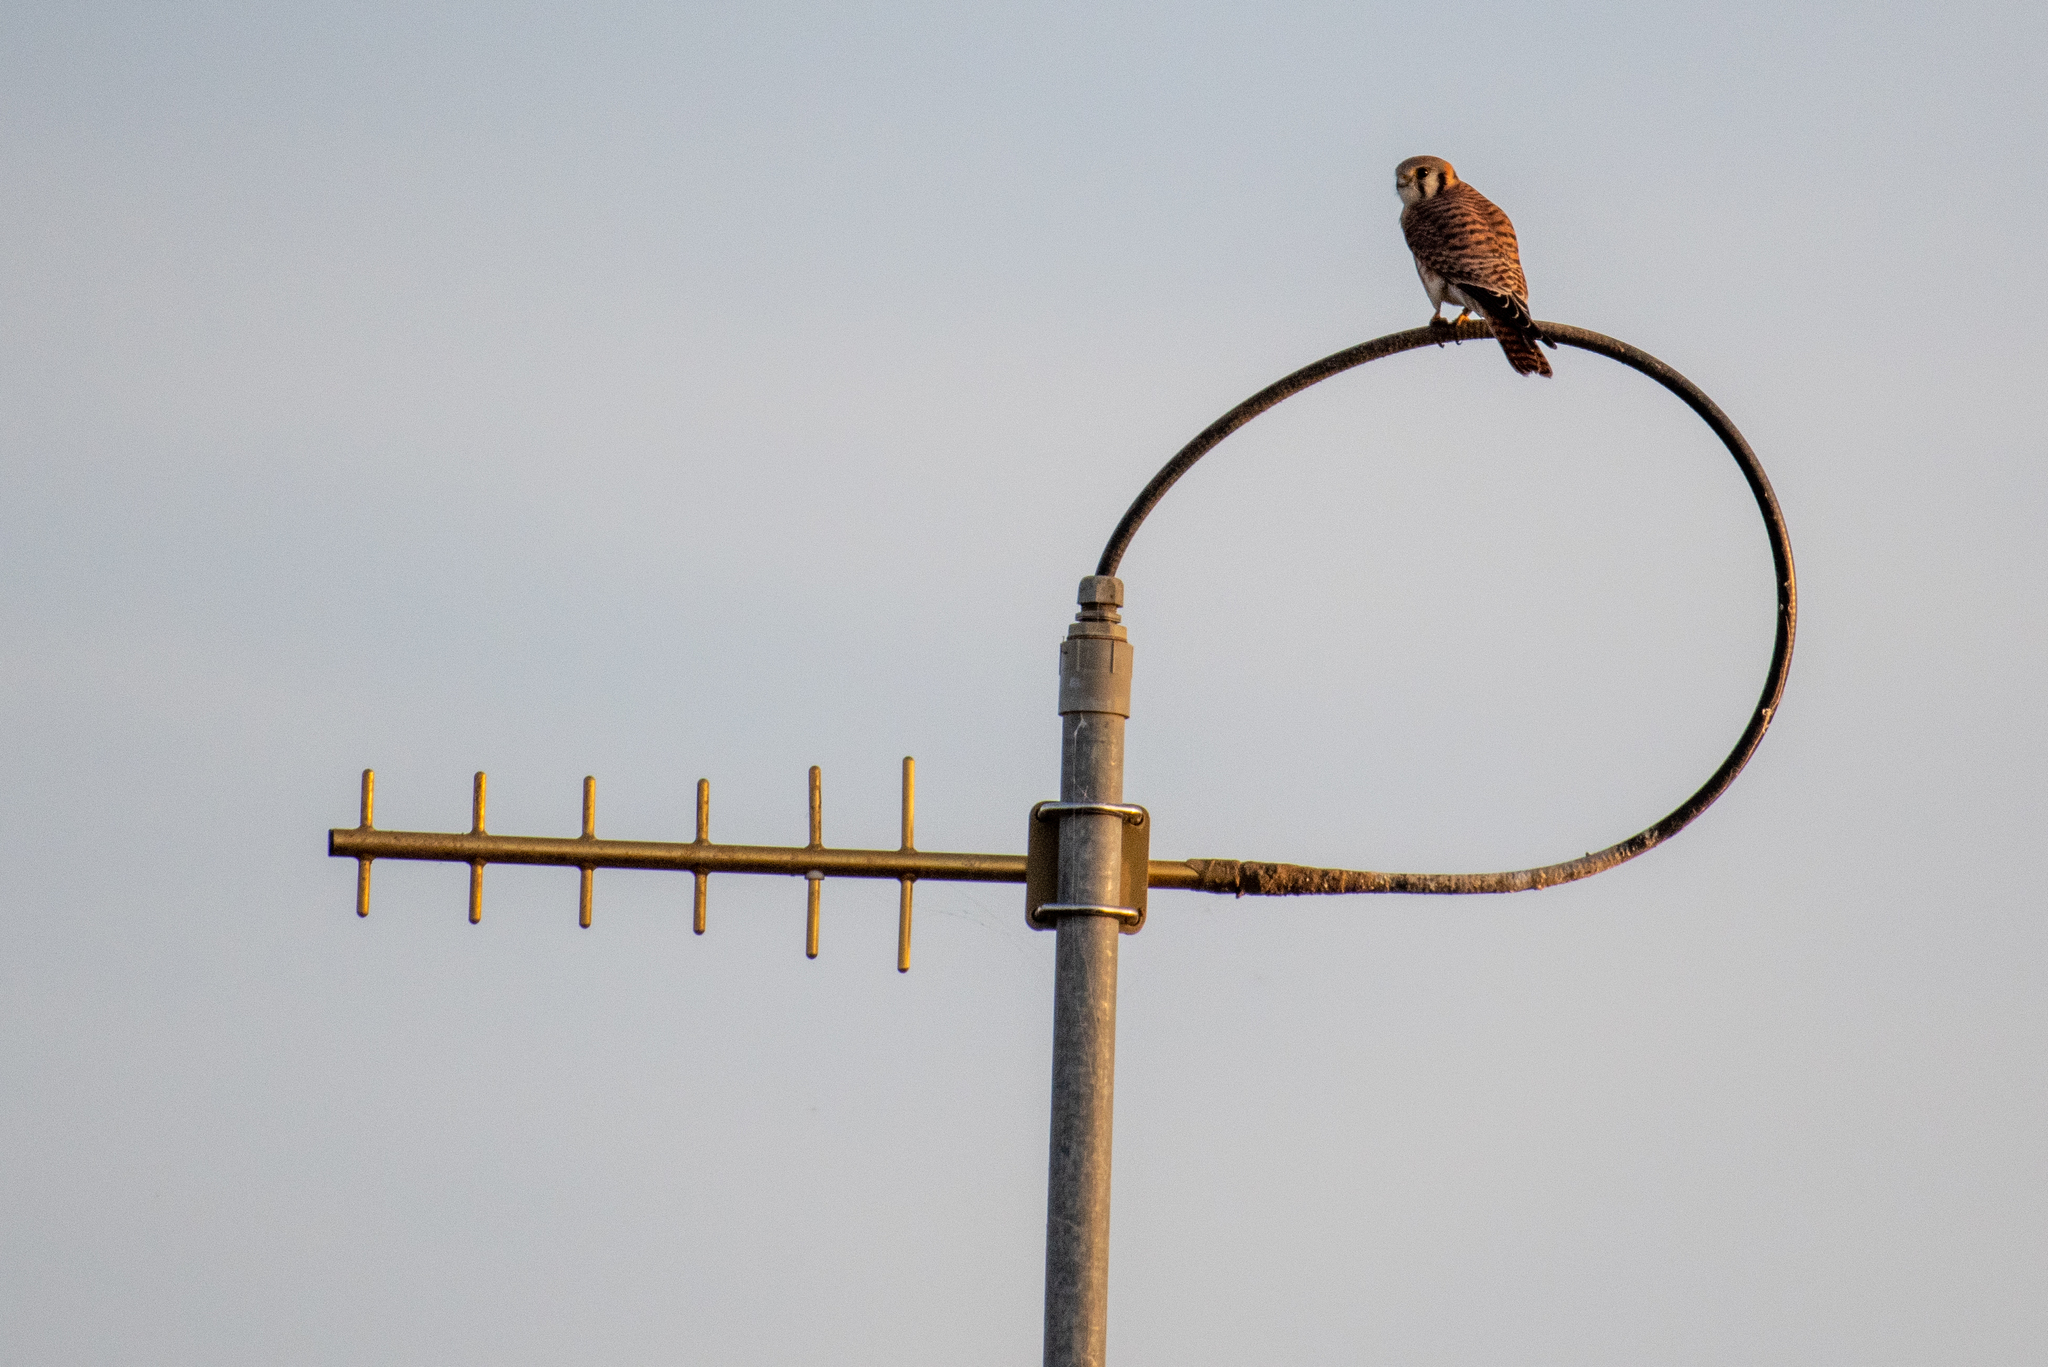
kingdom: Animalia
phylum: Chordata
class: Aves
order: Falconiformes
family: Falconidae
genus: Falco
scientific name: Falco sparverius
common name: American kestrel
